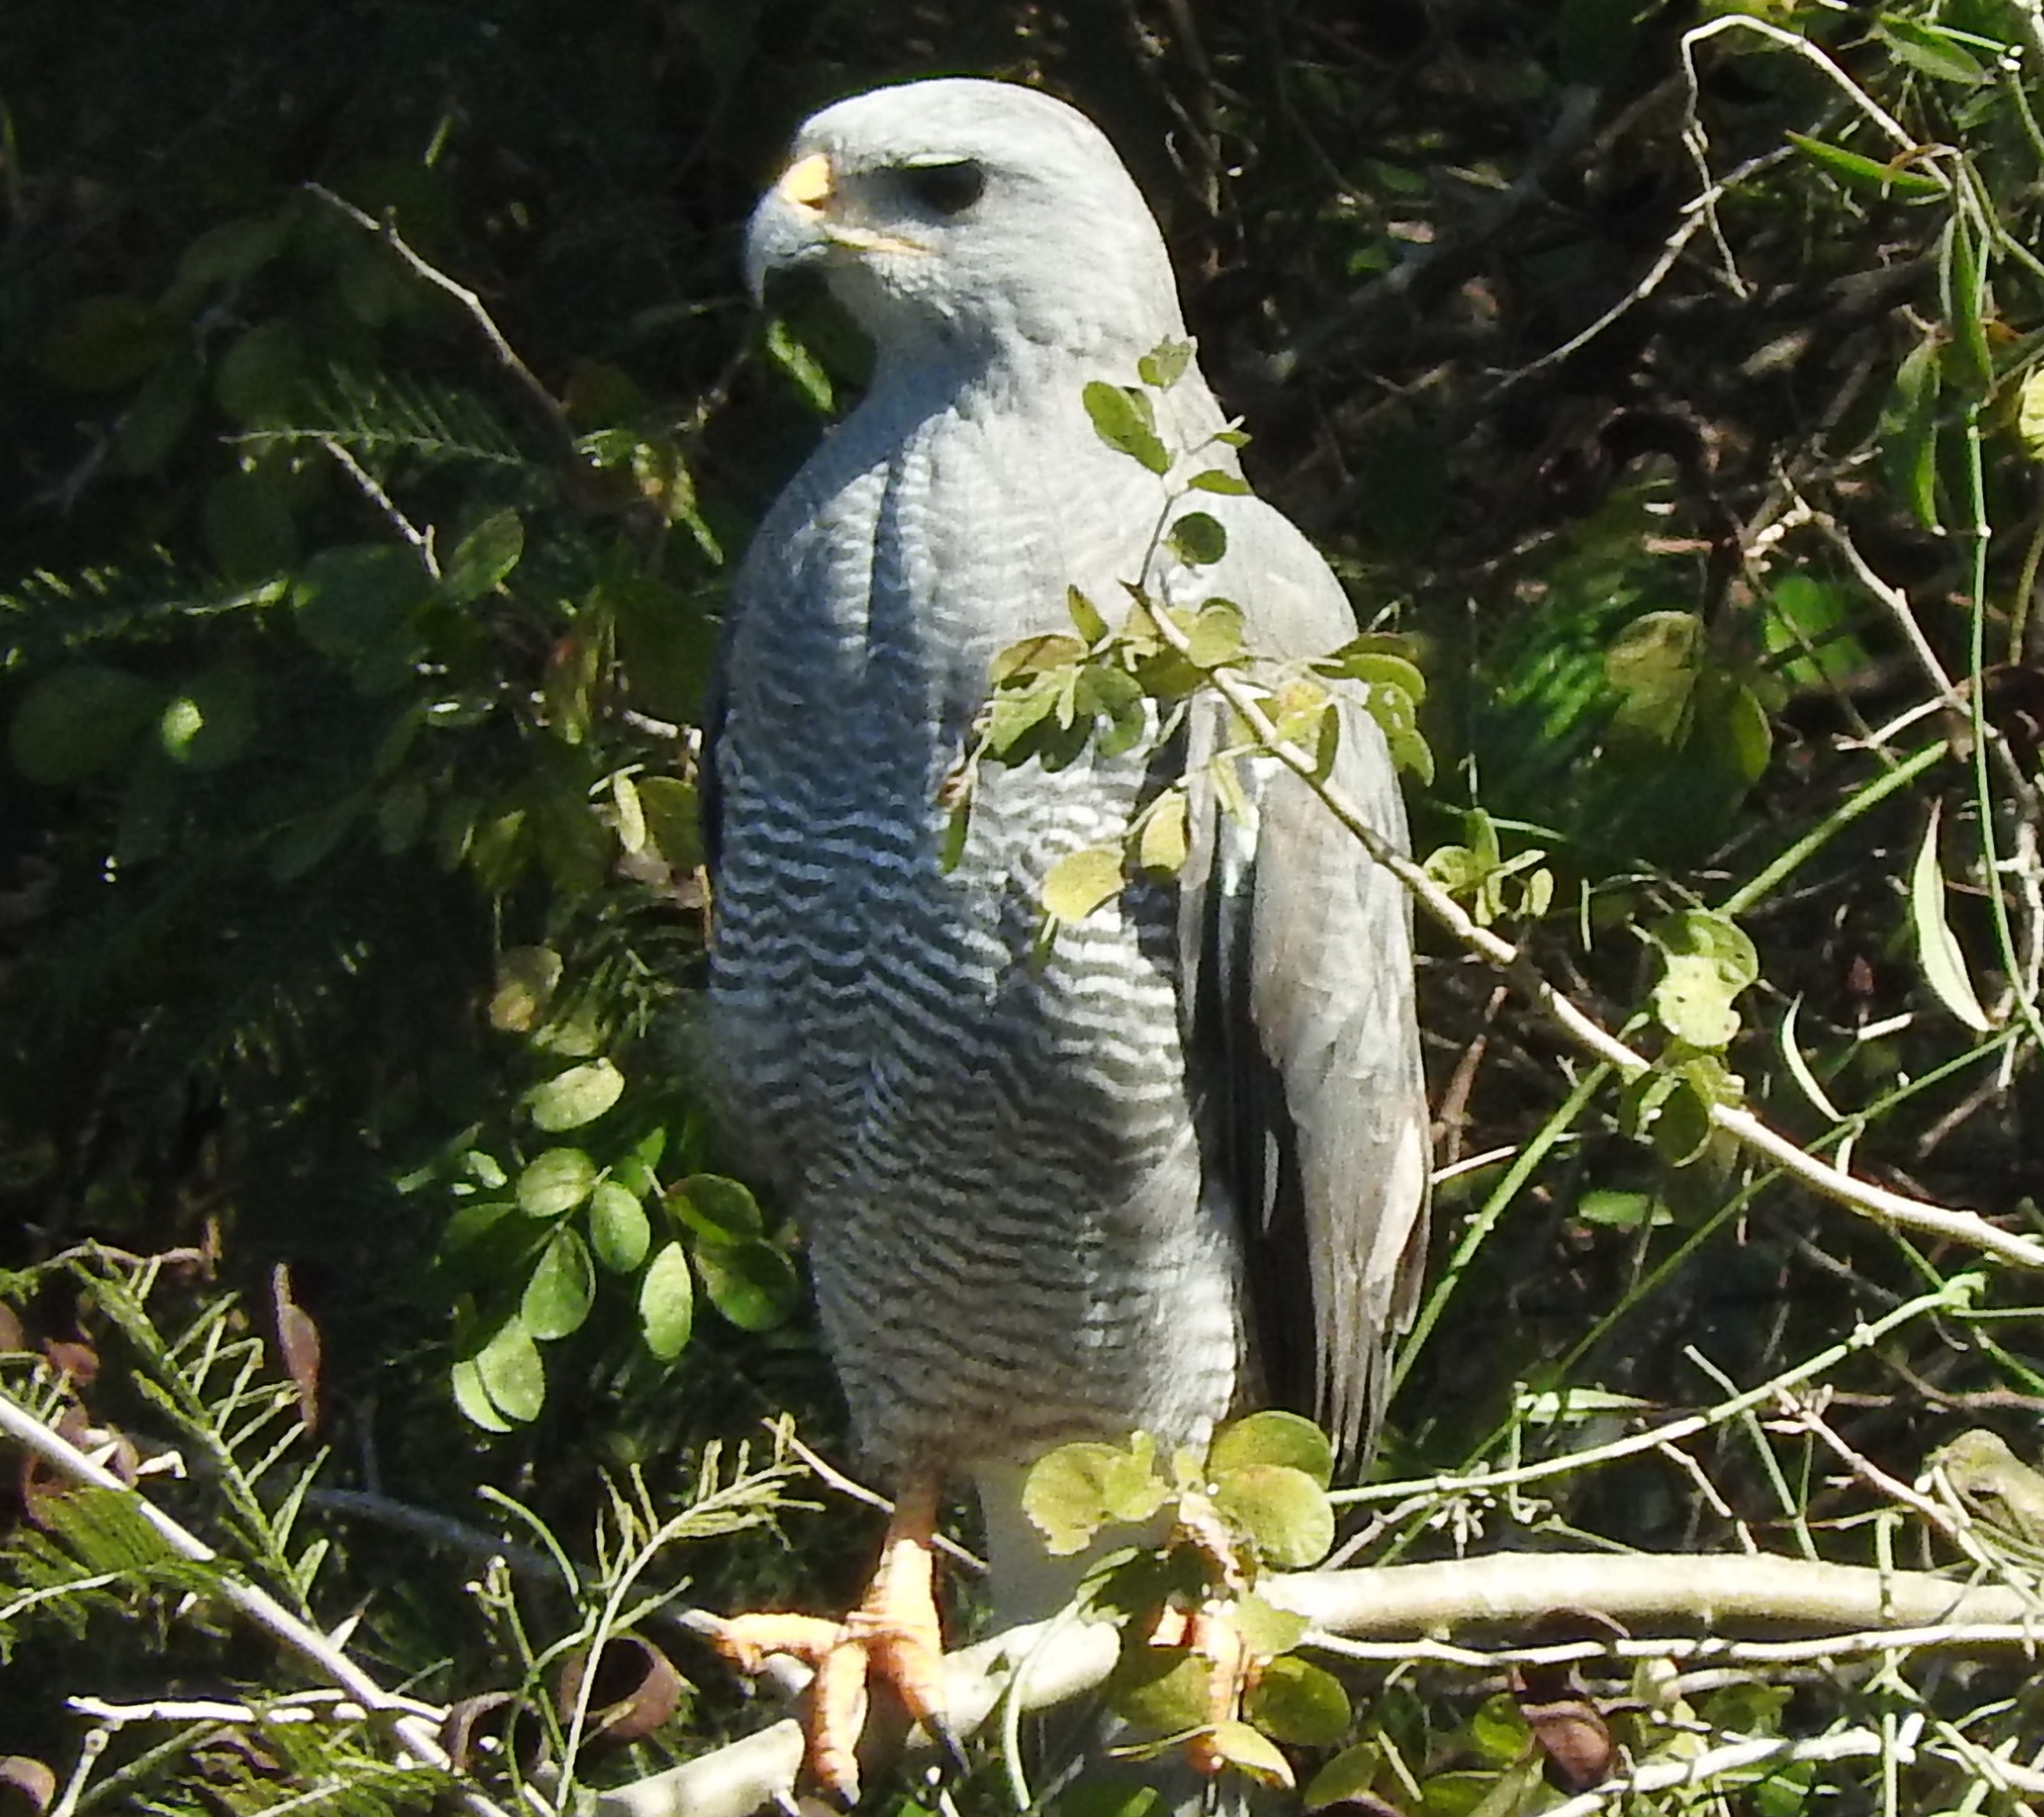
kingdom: Animalia
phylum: Chordata
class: Aves
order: Accipitriformes
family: Accipitridae
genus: Buteo
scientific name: Buteo nitidus
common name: Grey-lined hawk
